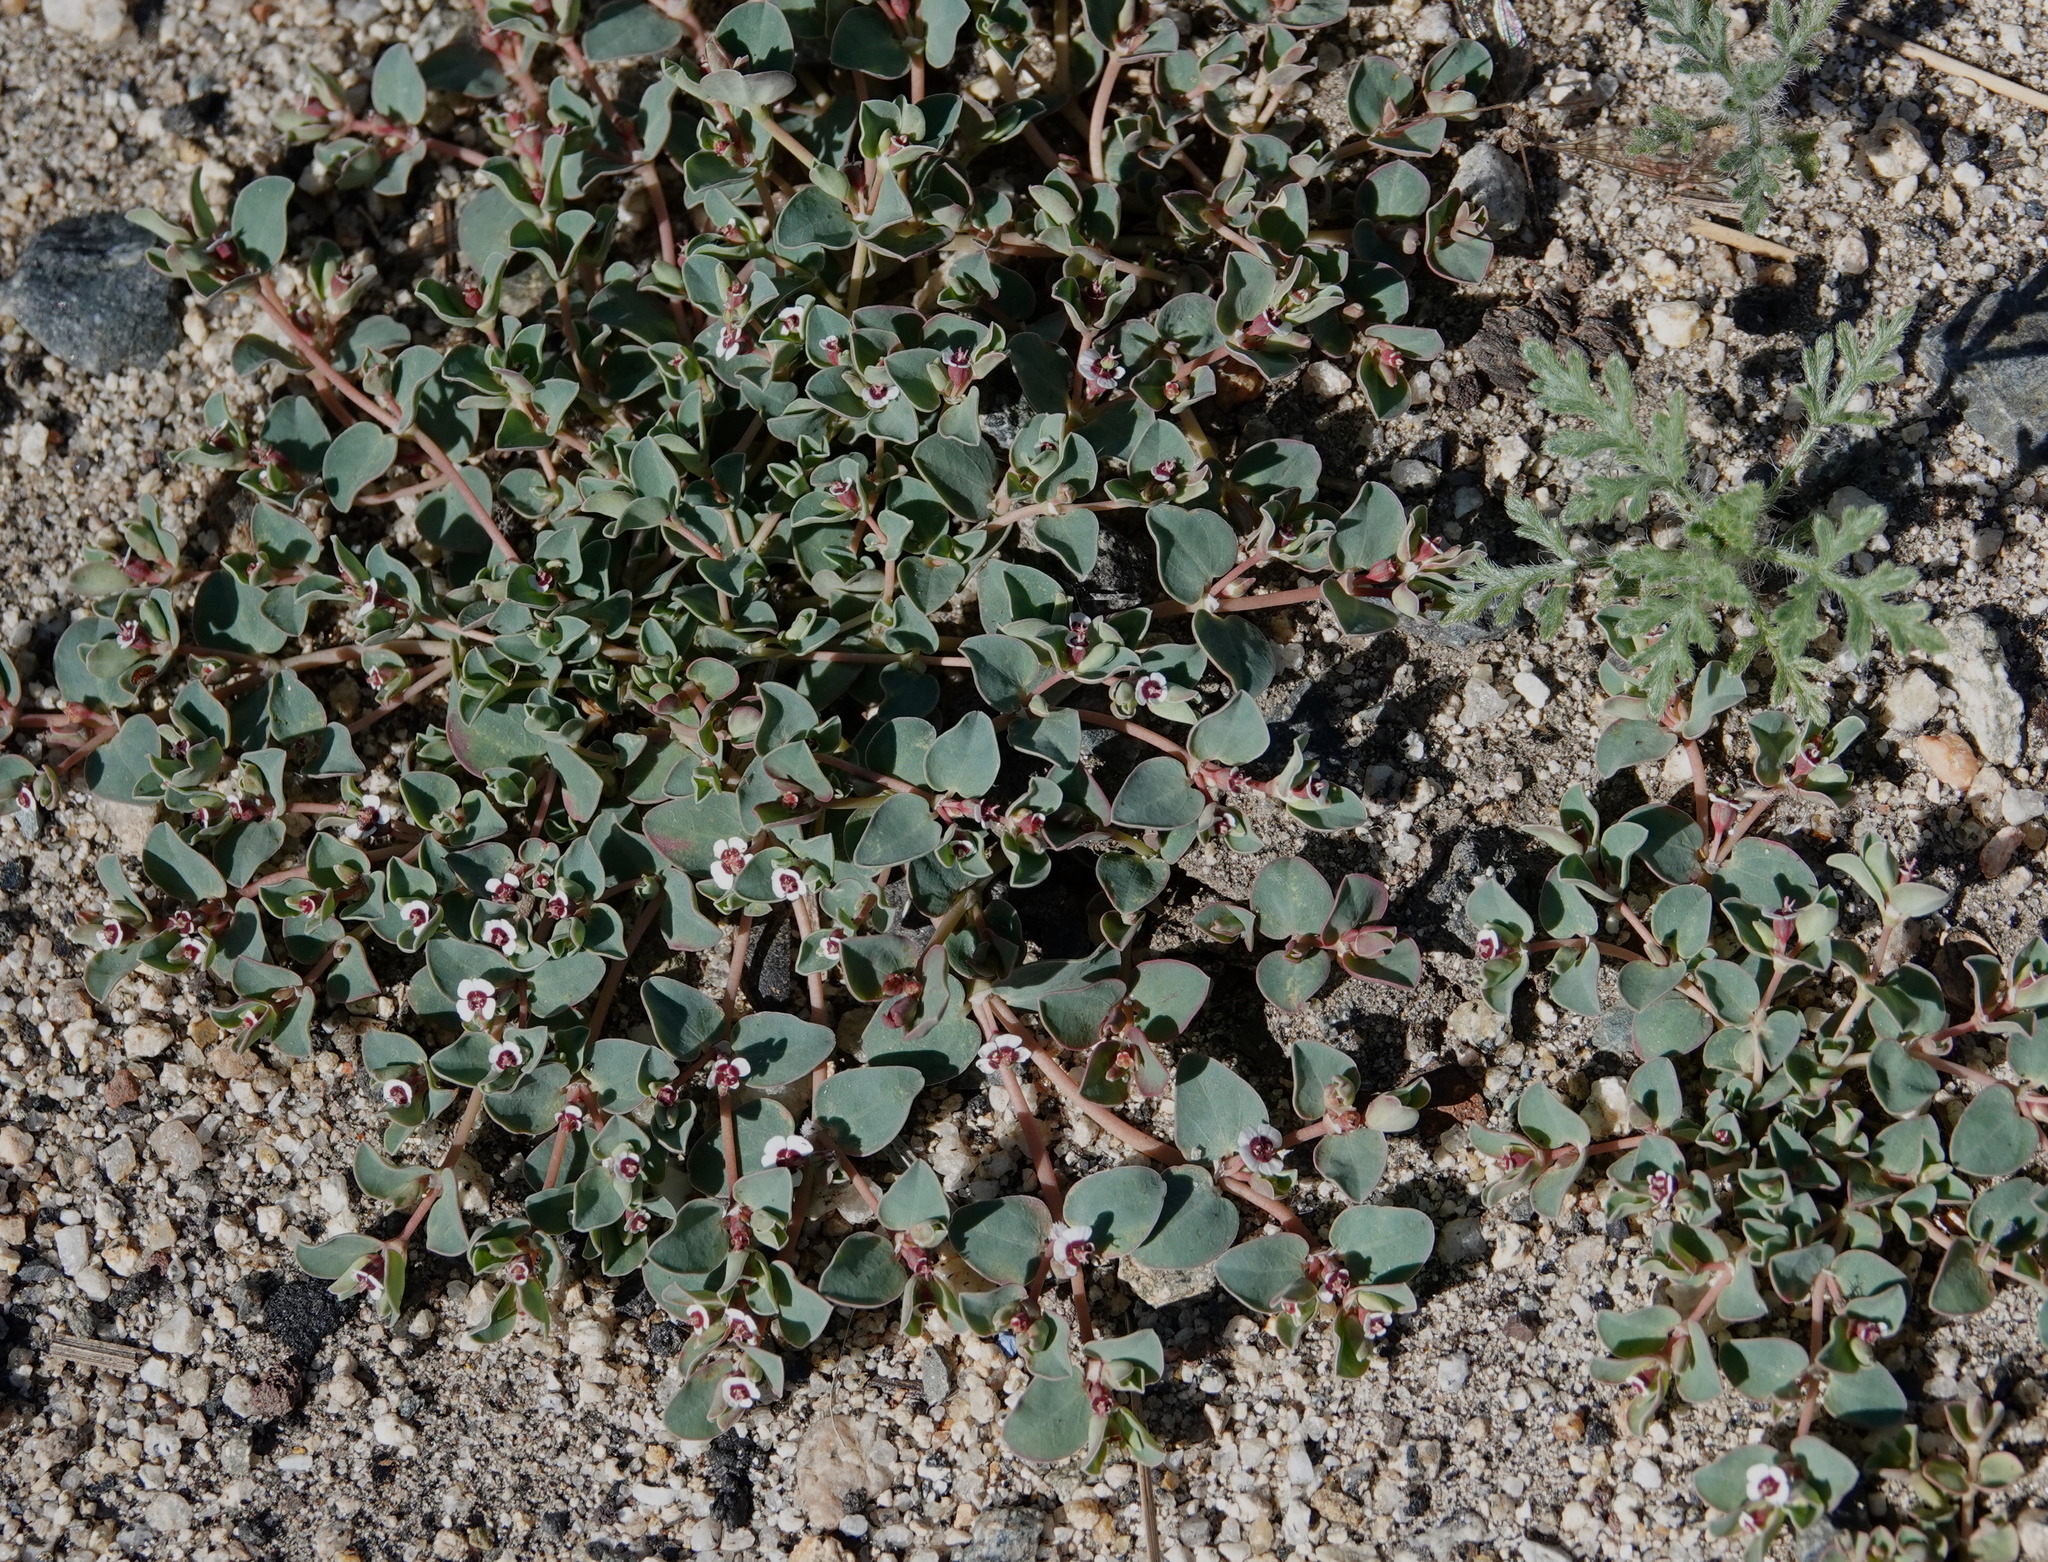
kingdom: Plantae
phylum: Tracheophyta
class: Magnoliopsida
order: Malpighiales
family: Euphorbiaceae
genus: Euphorbia
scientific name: Euphorbia albomarginata
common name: Whitemargin sandmat
